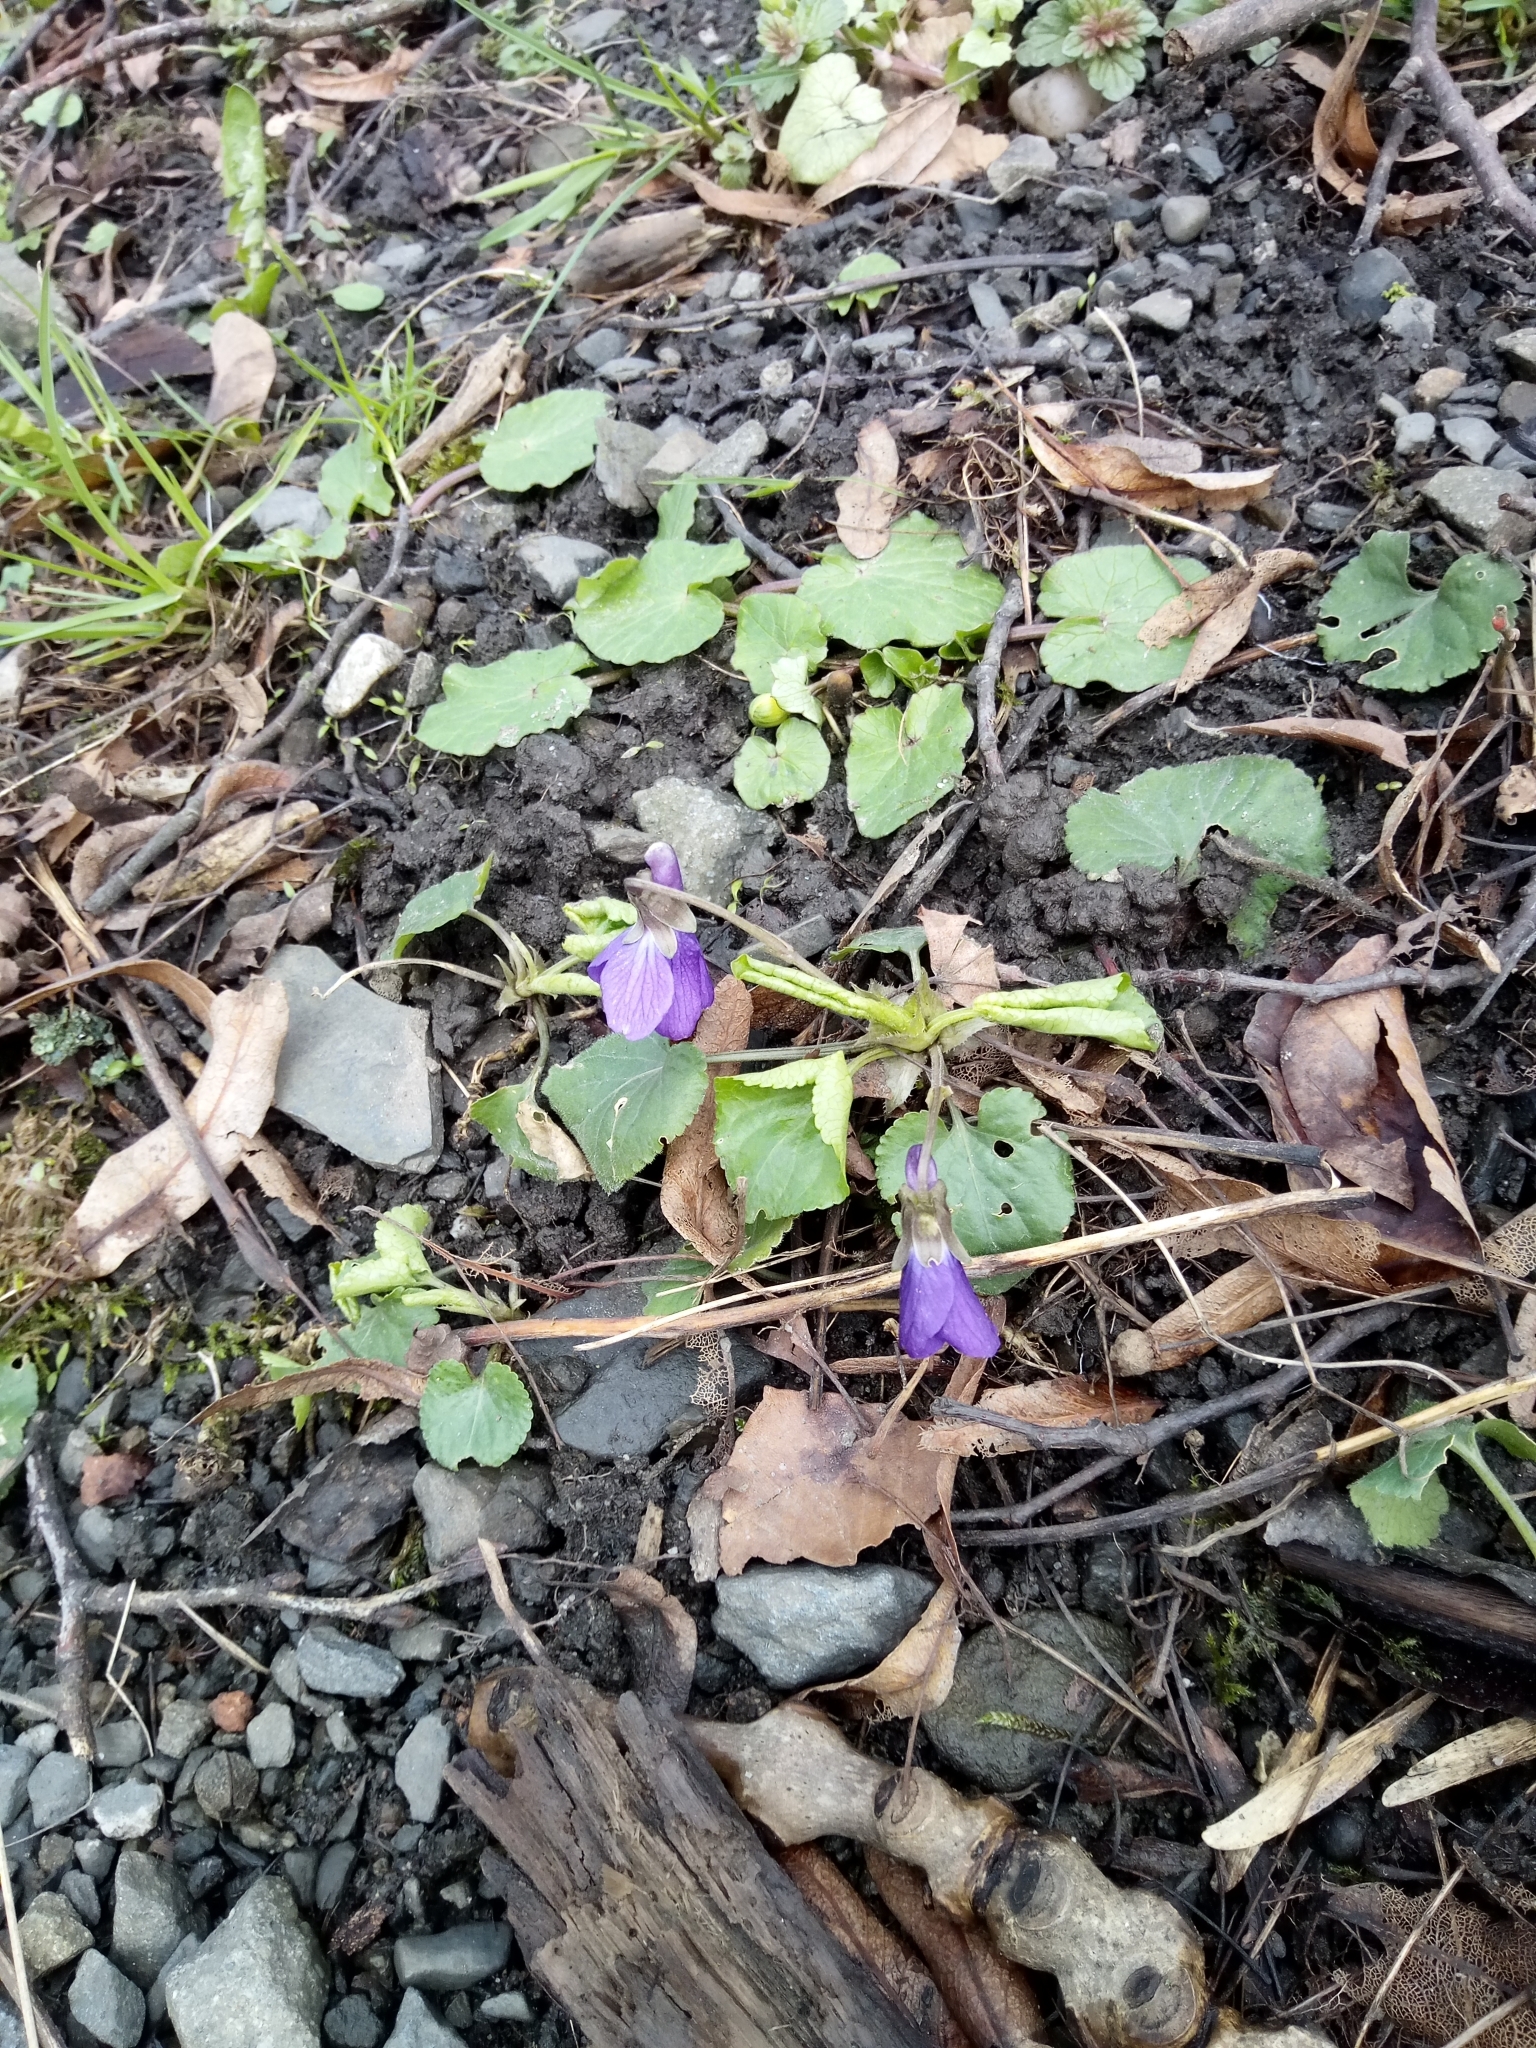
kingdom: Plantae
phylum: Tracheophyta
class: Magnoliopsida
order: Malpighiales
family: Violaceae
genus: Viola
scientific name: Viola odorata
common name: Sweet violet
